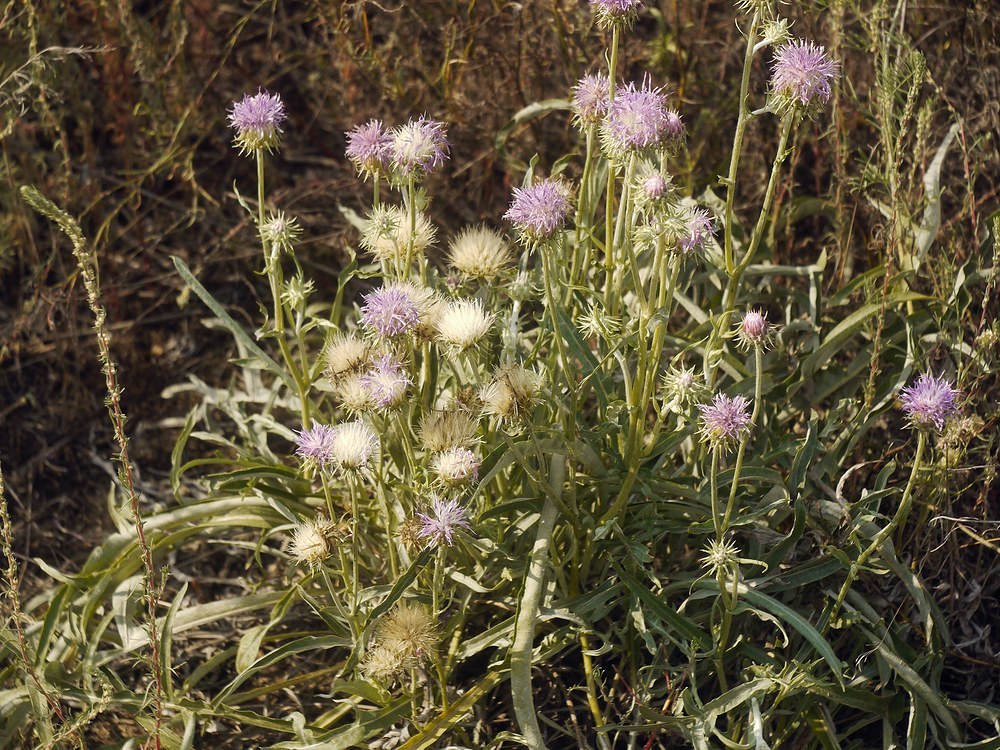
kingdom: Plantae
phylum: Tracheophyta
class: Magnoliopsida
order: Asterales
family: Asteraceae
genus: Jurinea
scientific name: Jurinea longifolia
